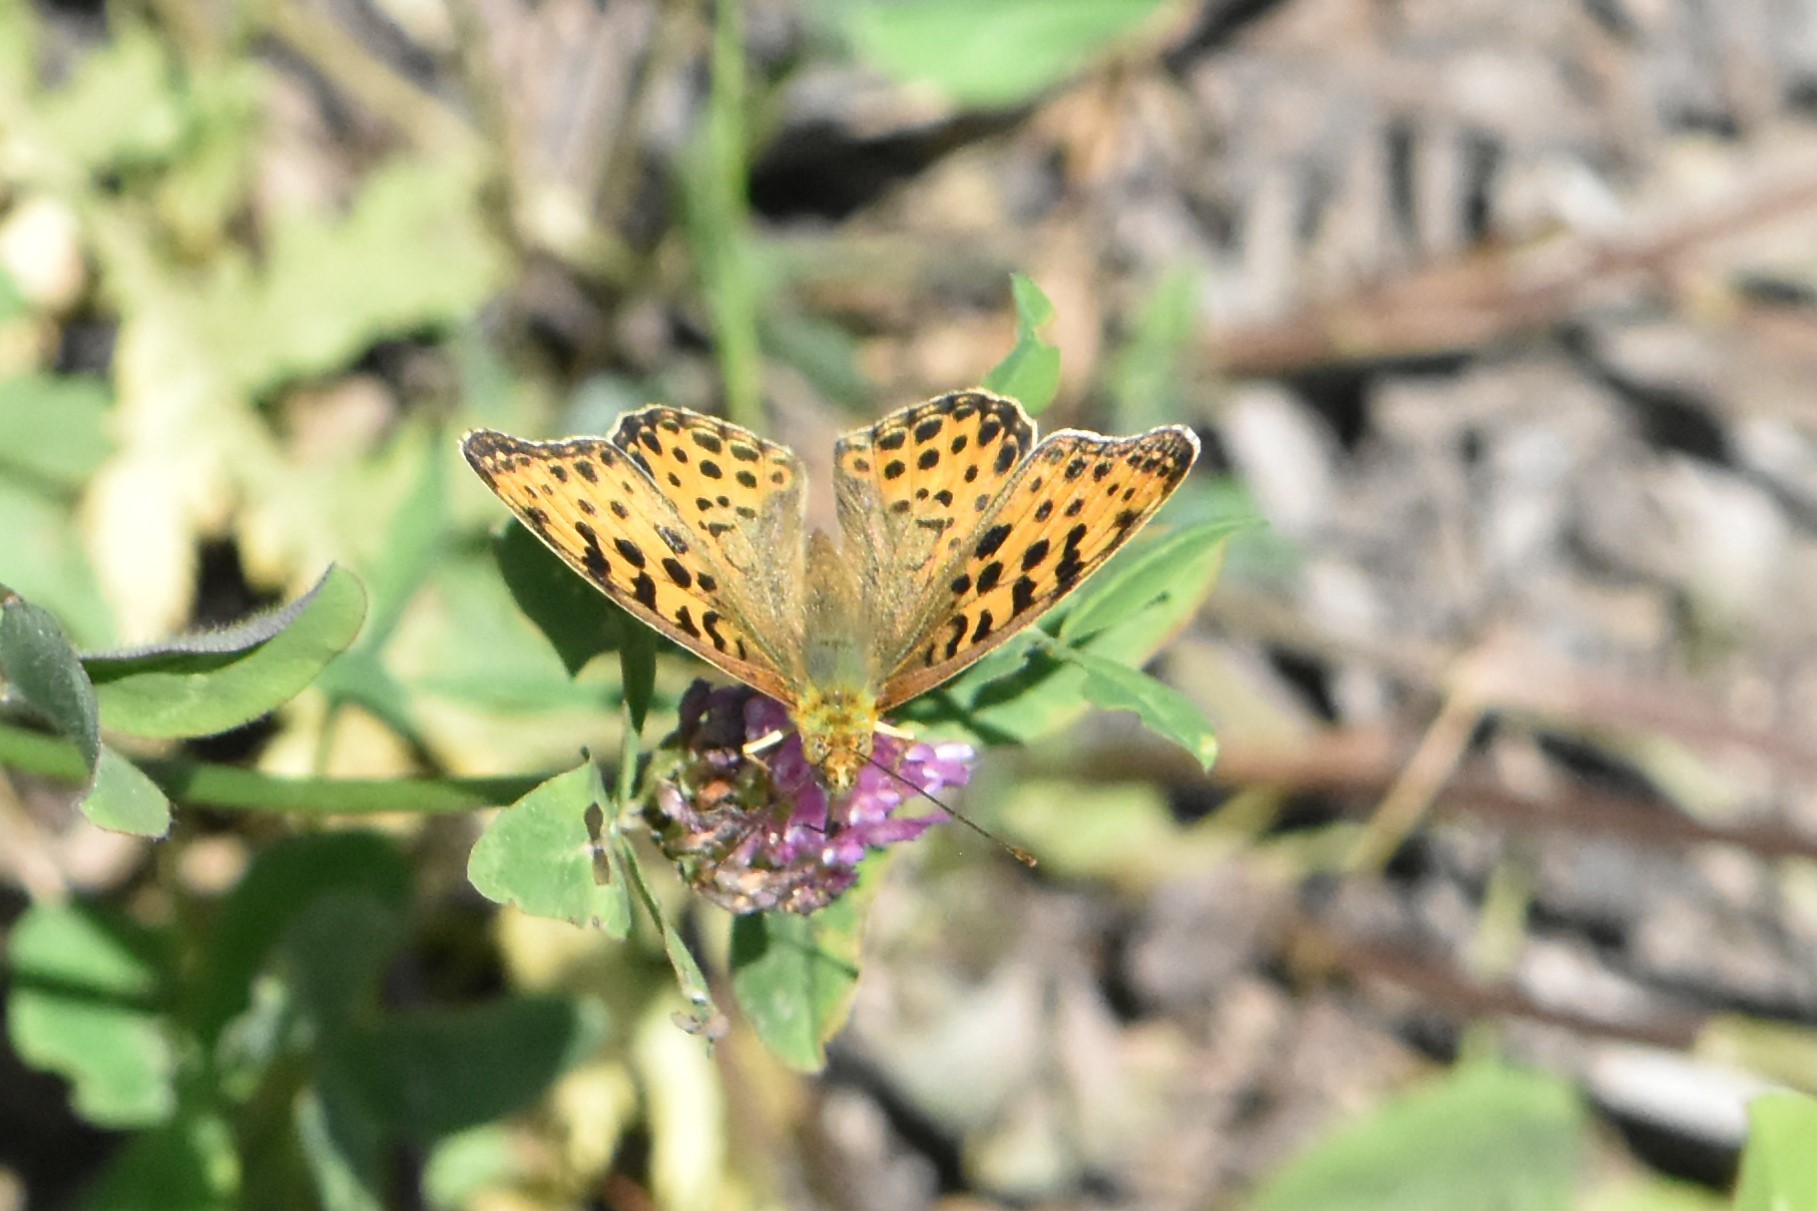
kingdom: Animalia
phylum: Arthropoda
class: Insecta
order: Lepidoptera
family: Nymphalidae
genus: Issoria
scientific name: Issoria lathonia
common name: Queen of spain fritillary
